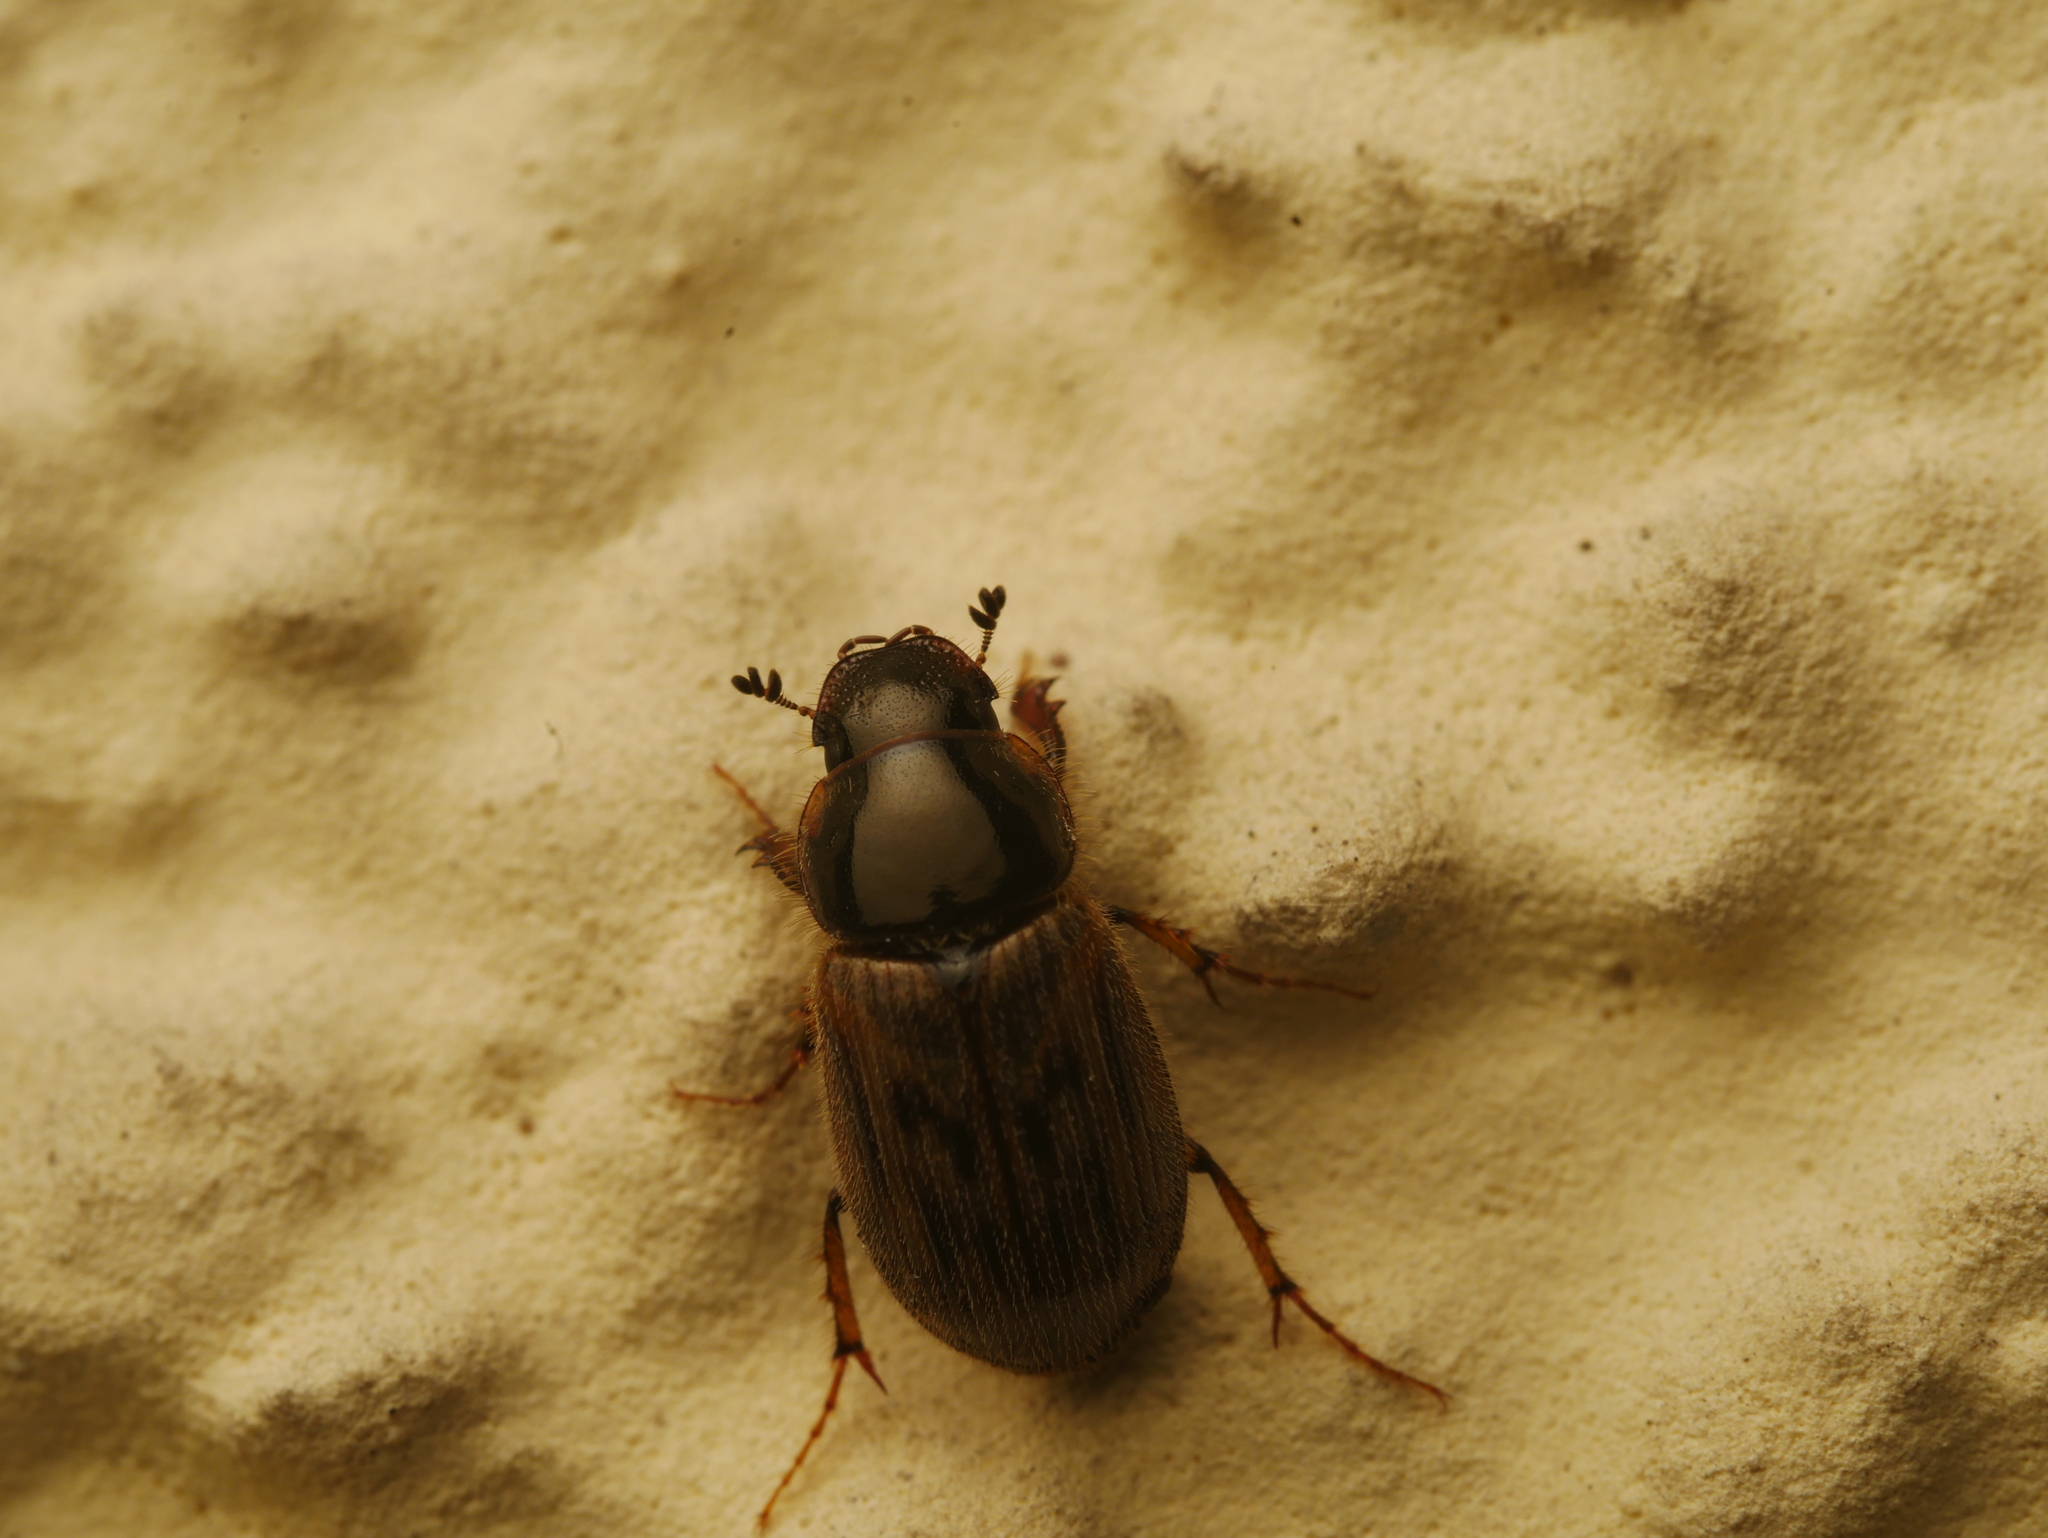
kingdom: Animalia
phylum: Arthropoda
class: Insecta
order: Coleoptera
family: Scarabaeidae
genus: Nimbus
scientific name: Nimbus contaminatus
